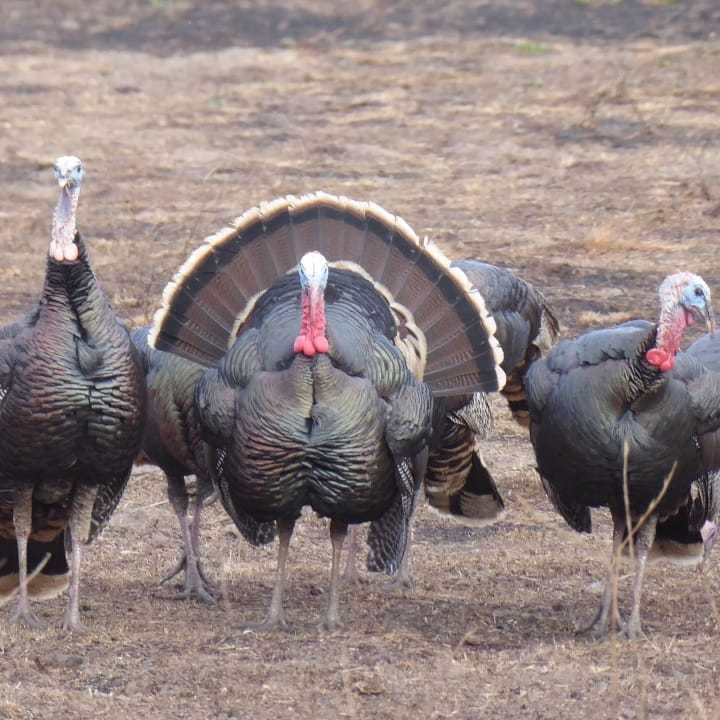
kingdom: Animalia
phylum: Chordata
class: Aves
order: Galliformes
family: Phasianidae
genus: Meleagris
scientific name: Meleagris gallopavo
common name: Wild turkey
